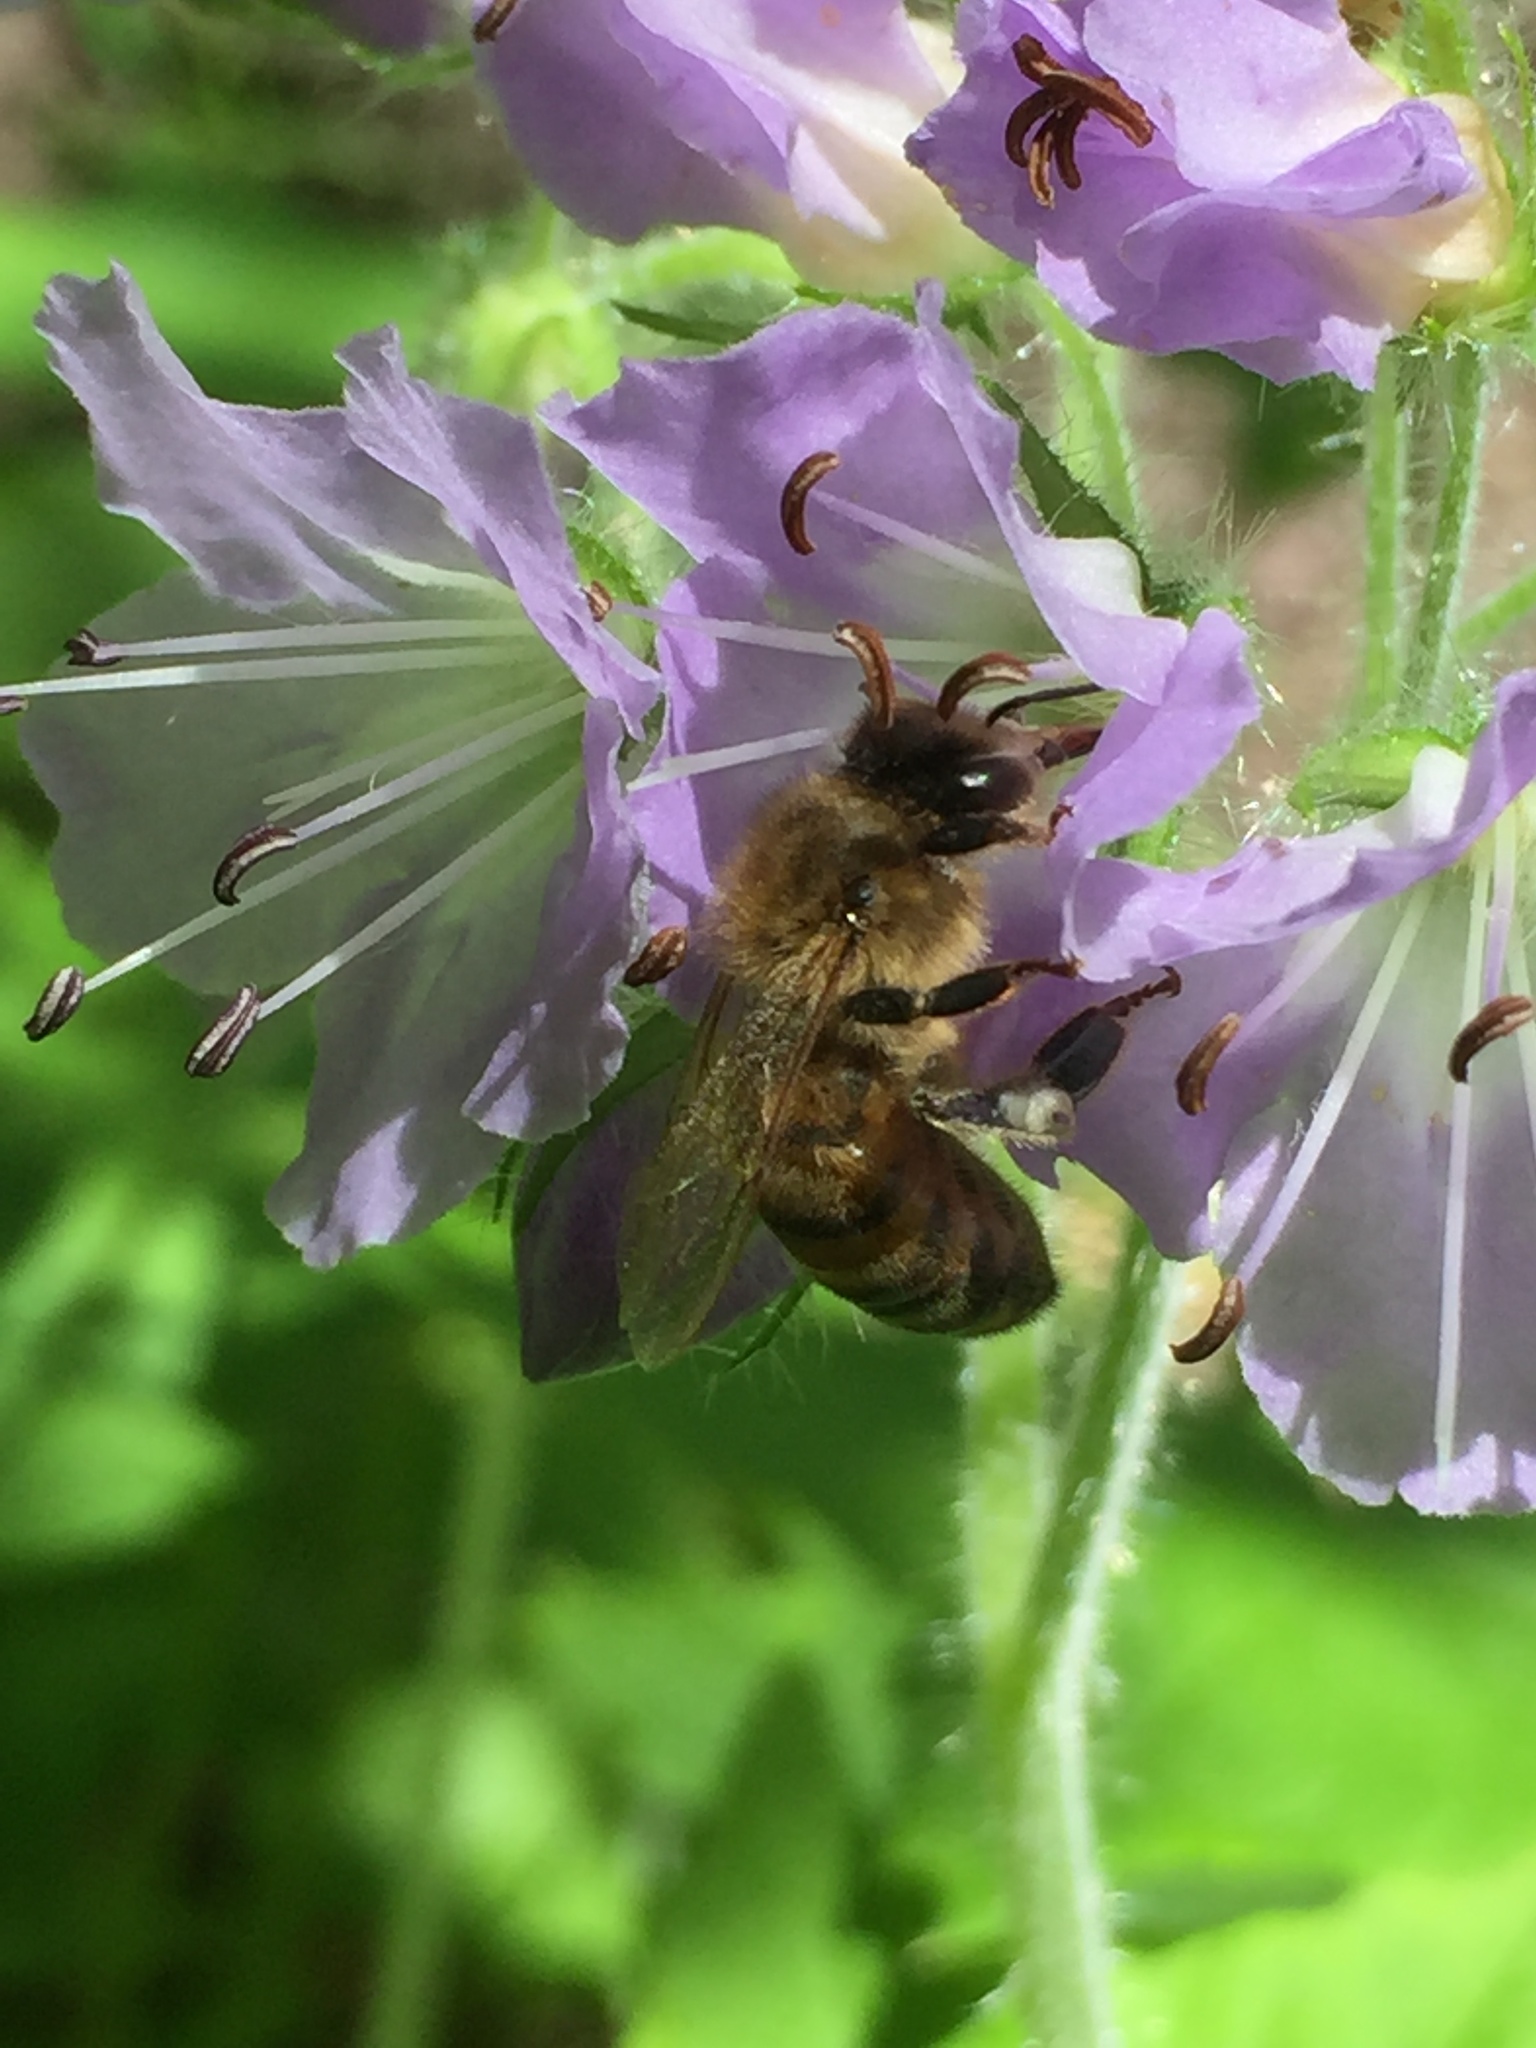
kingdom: Animalia
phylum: Arthropoda
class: Insecta
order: Hymenoptera
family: Apidae
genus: Apis
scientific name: Apis mellifera
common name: Honey bee
